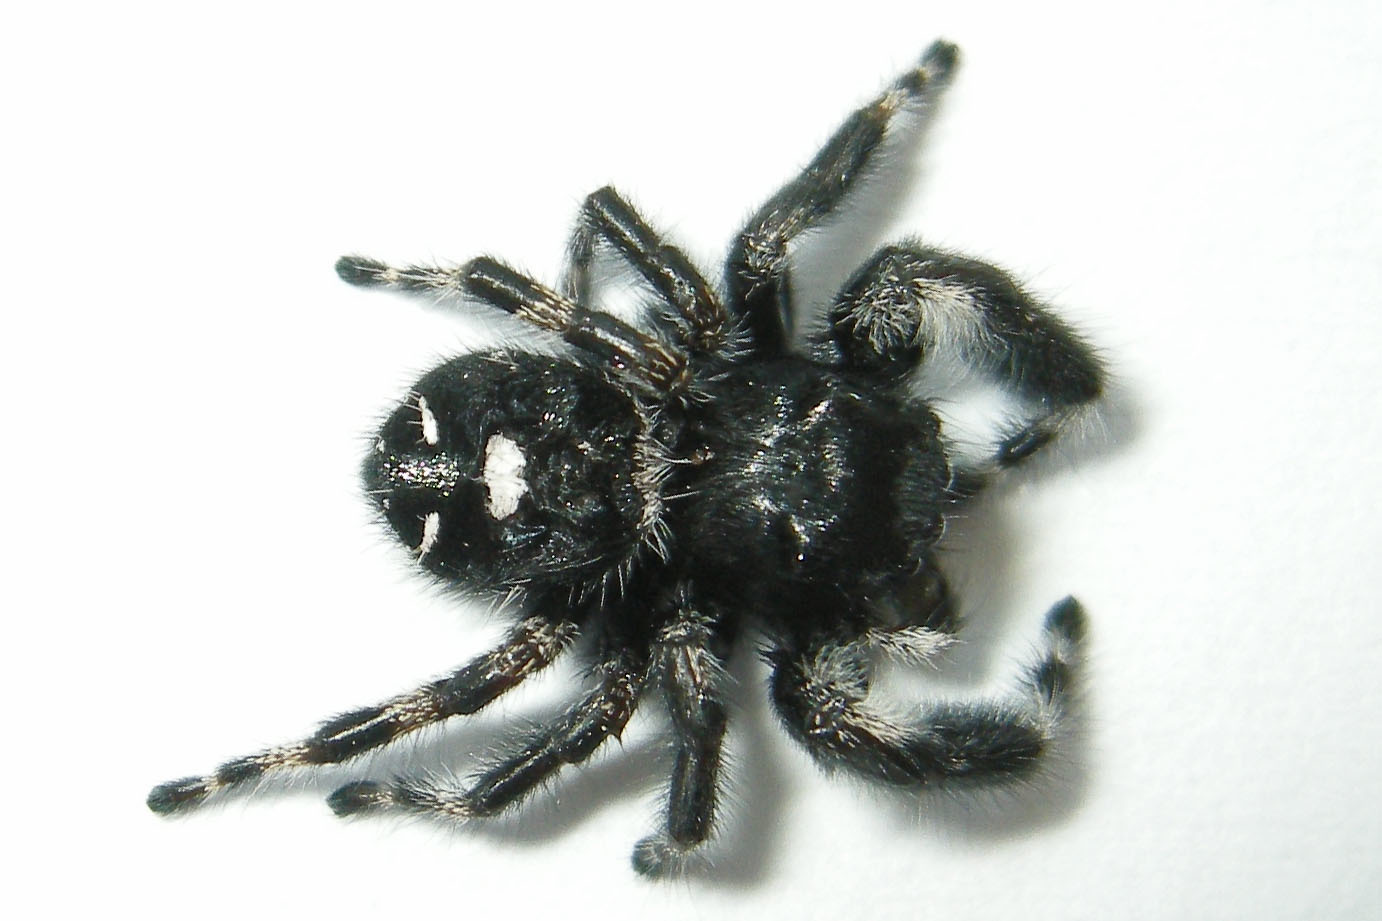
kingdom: Animalia
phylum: Arthropoda
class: Arachnida
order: Araneae
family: Salticidae
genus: Phidippus
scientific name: Phidippus audax
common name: Bold jumper
